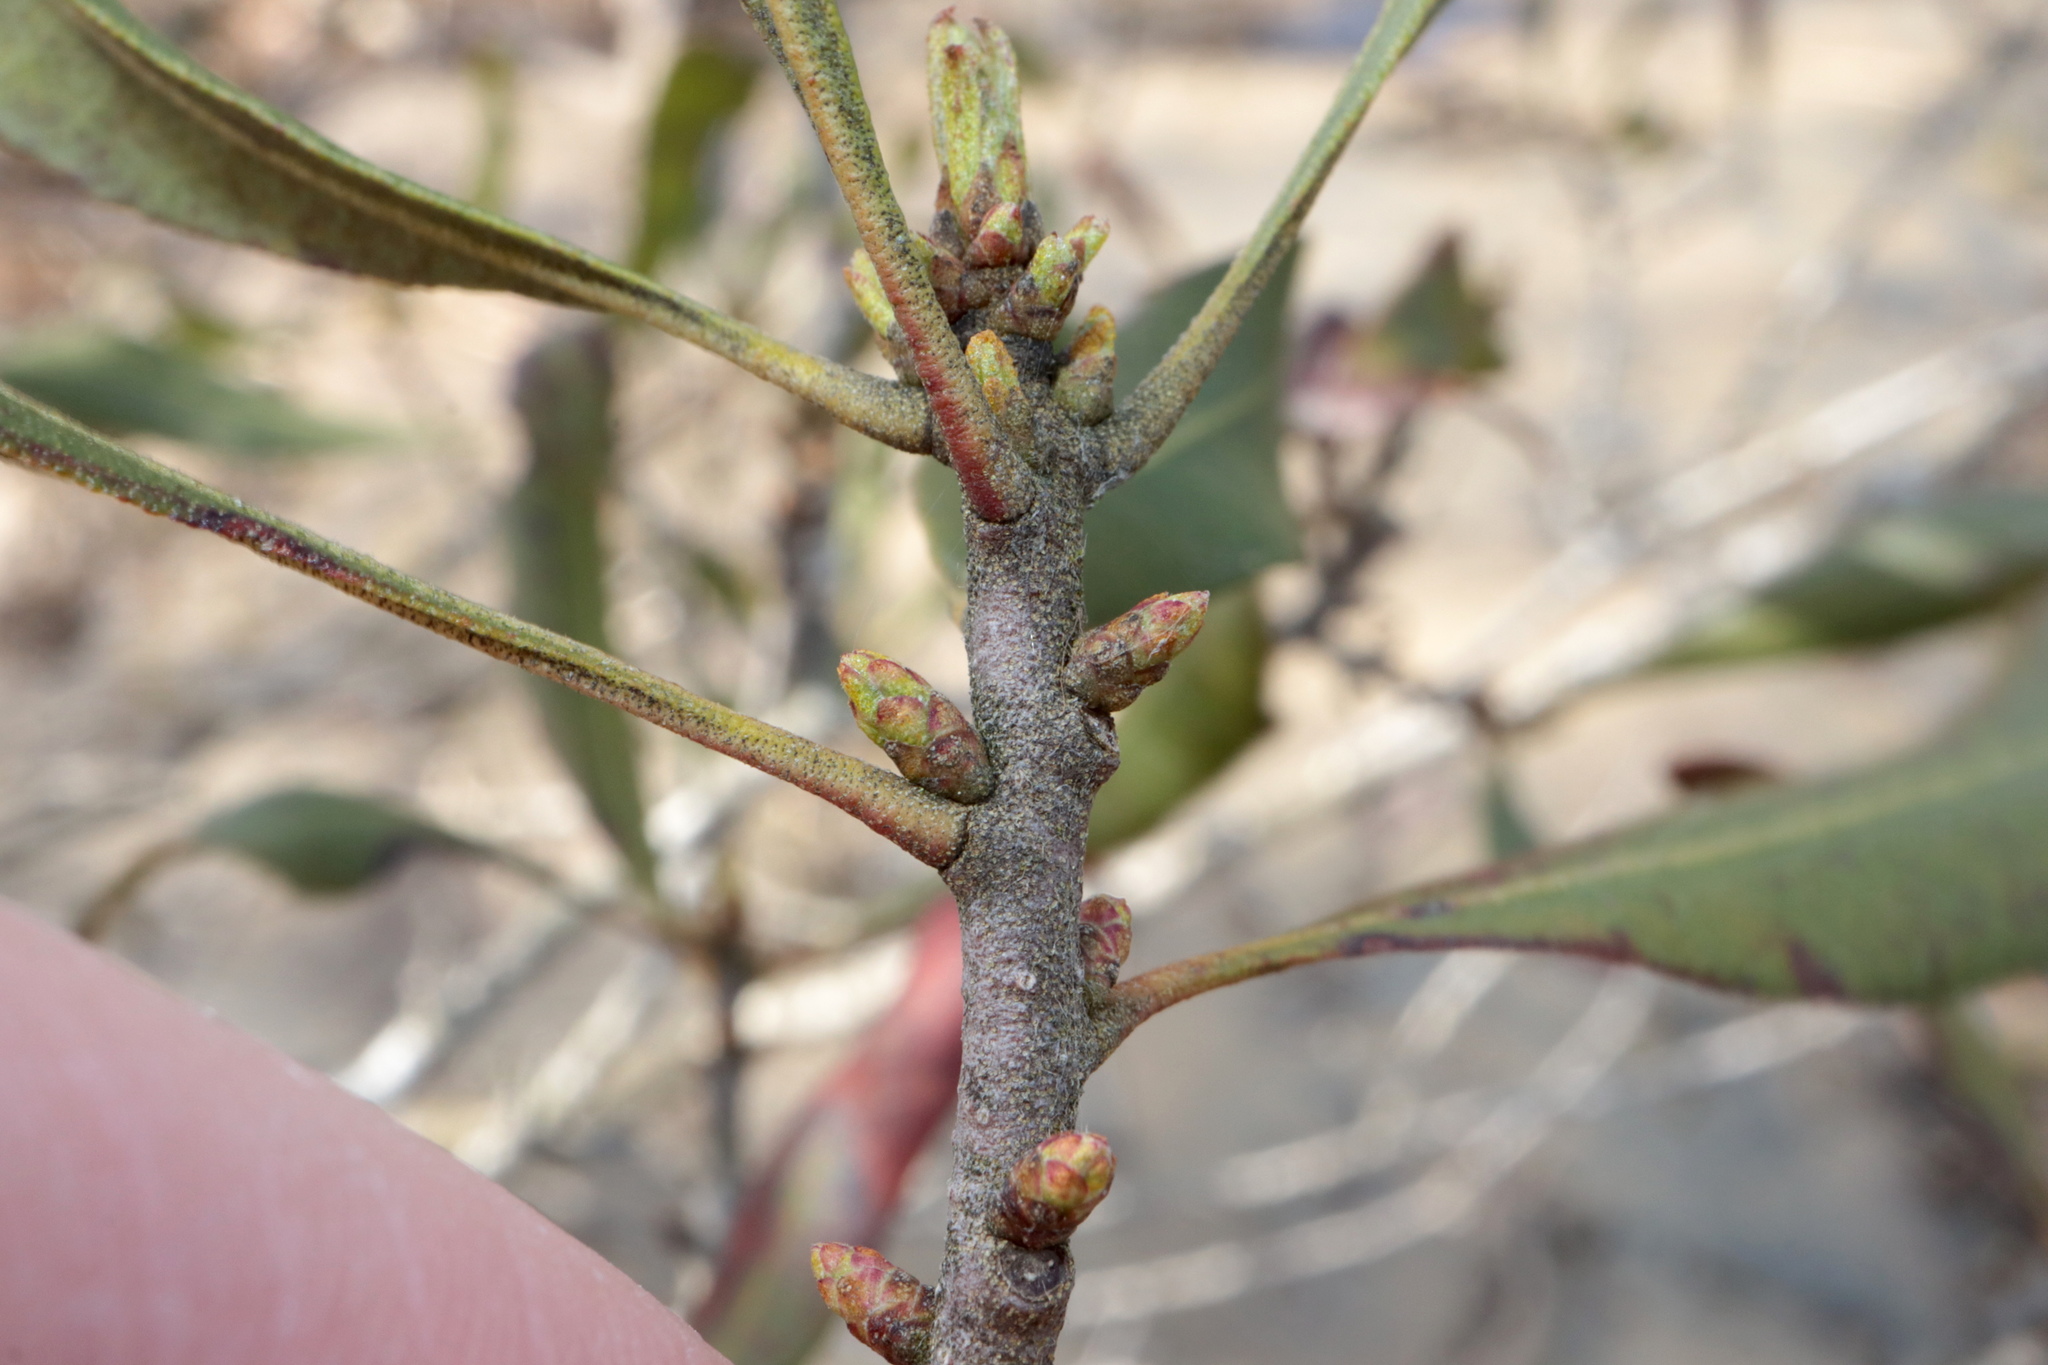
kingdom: Plantae
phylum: Tracheophyta
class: Magnoliopsida
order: Fagales
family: Myricaceae
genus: Morella
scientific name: Morella cerifera
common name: Wax myrtle
